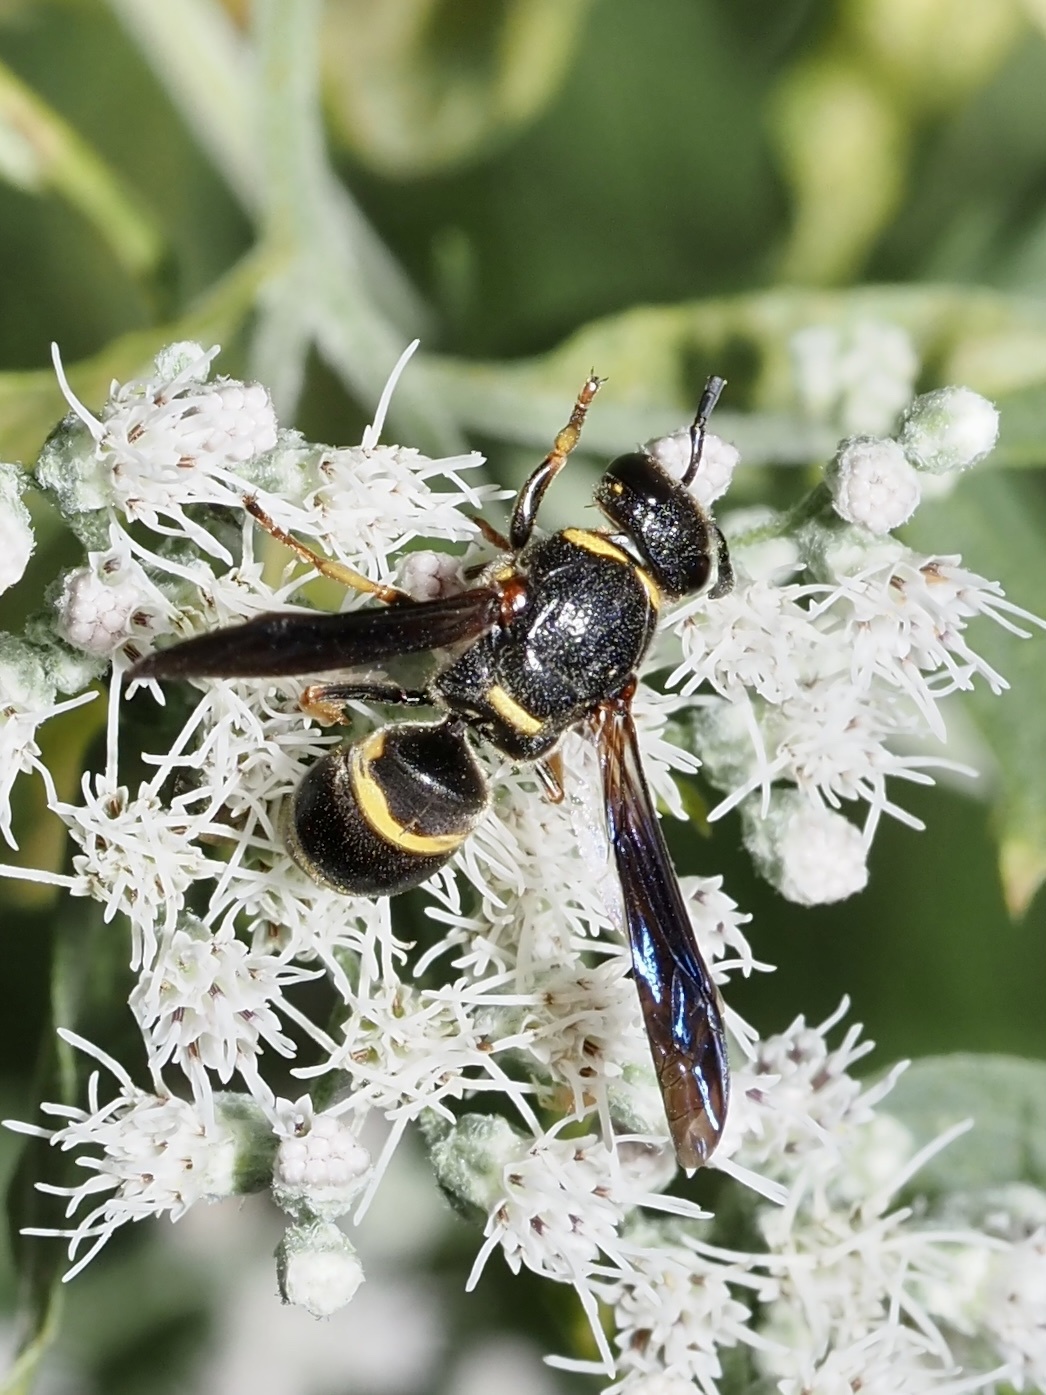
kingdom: Animalia
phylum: Arthropoda
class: Insecta
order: Hymenoptera
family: Eumenidae
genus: Euodynerus
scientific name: Euodynerus
